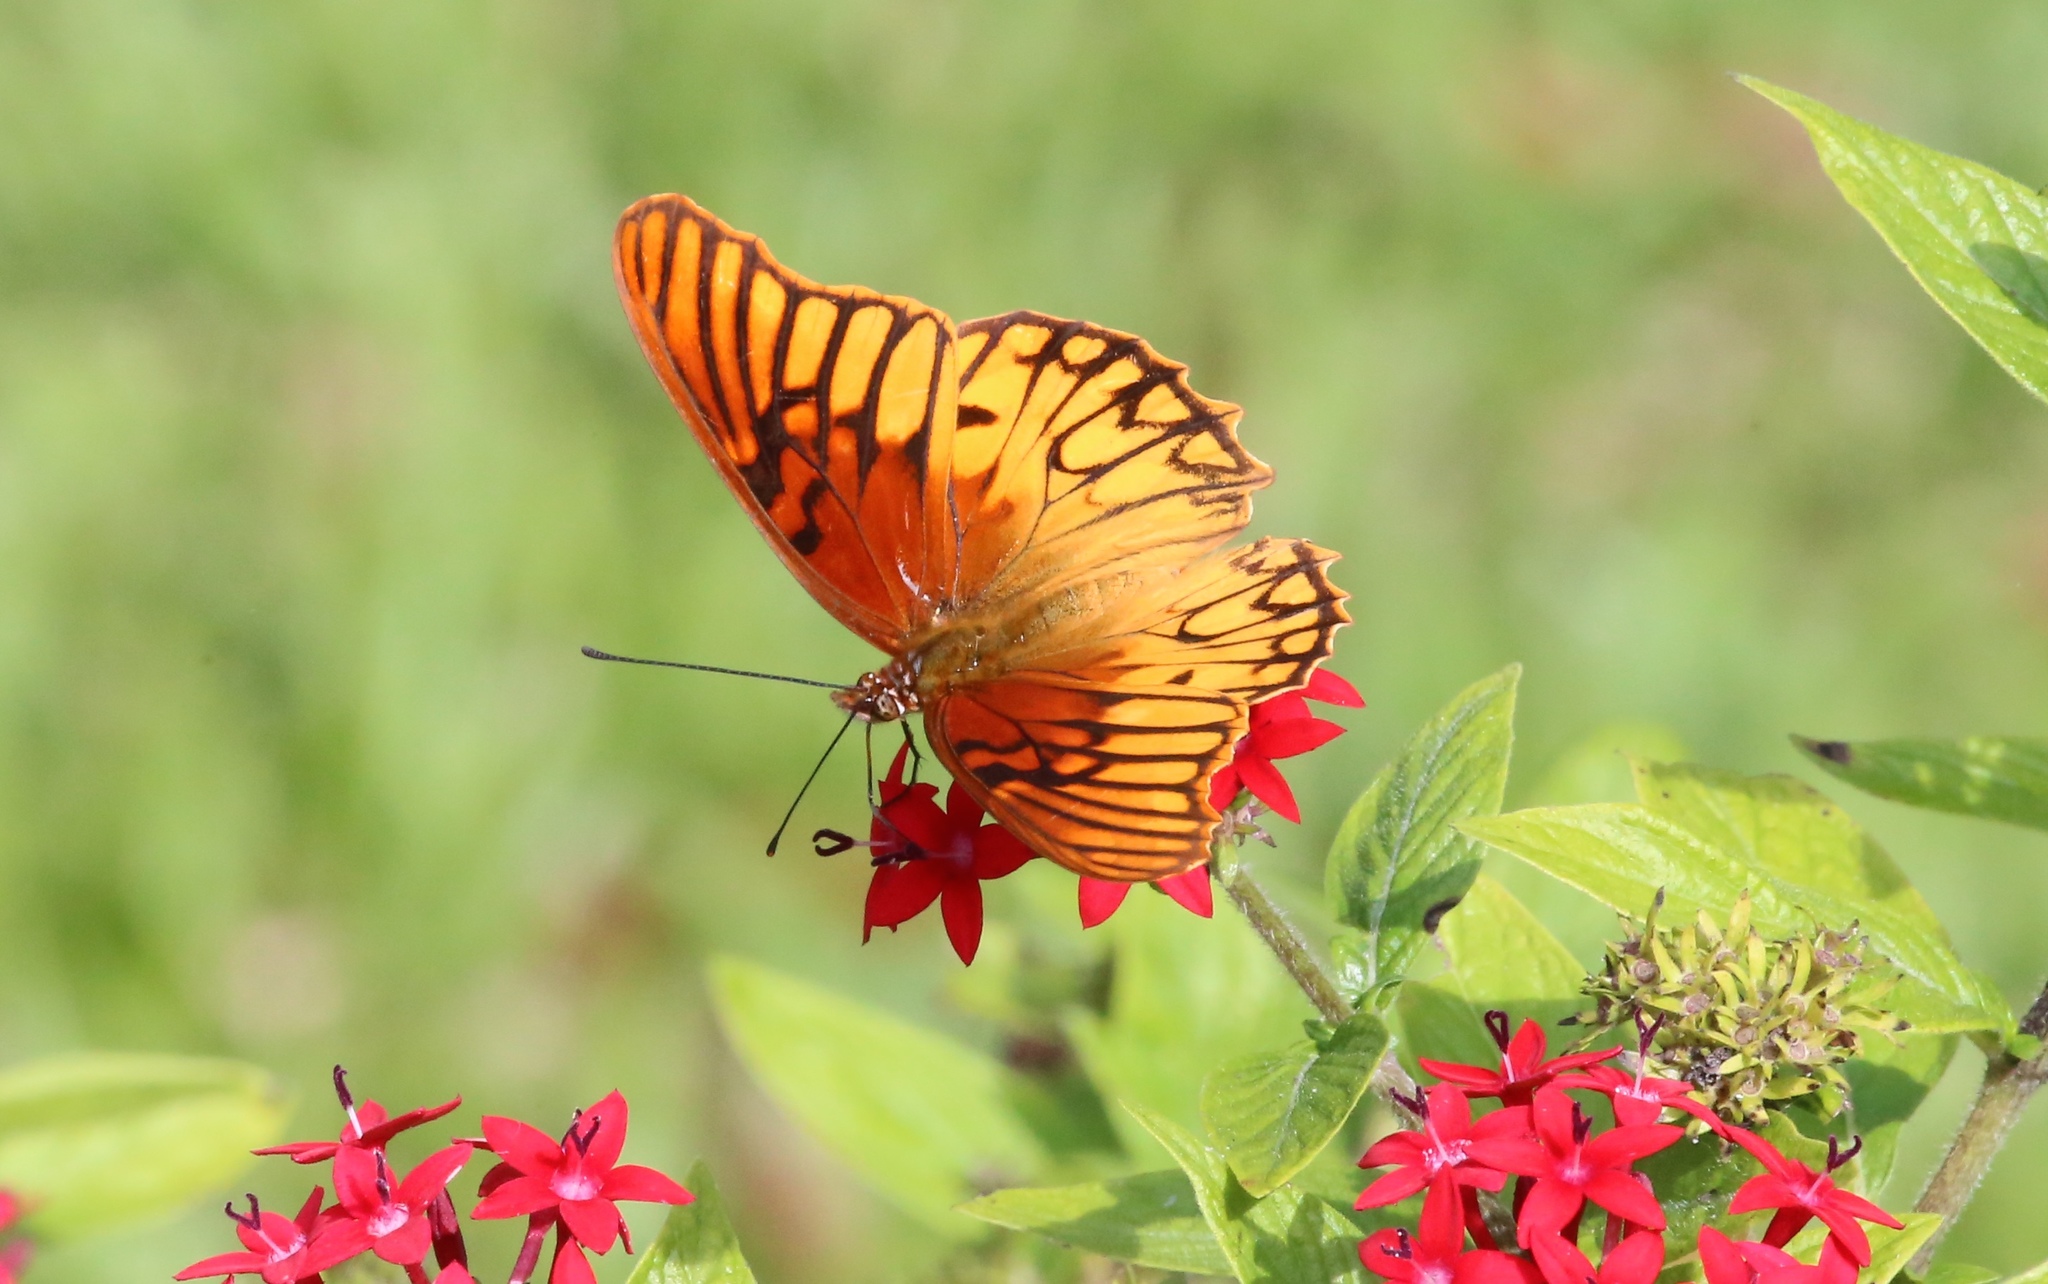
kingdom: Animalia
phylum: Arthropoda
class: Insecta
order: Lepidoptera
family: Nymphalidae
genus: Dione
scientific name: Dione moneta
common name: Mexican silverspot
